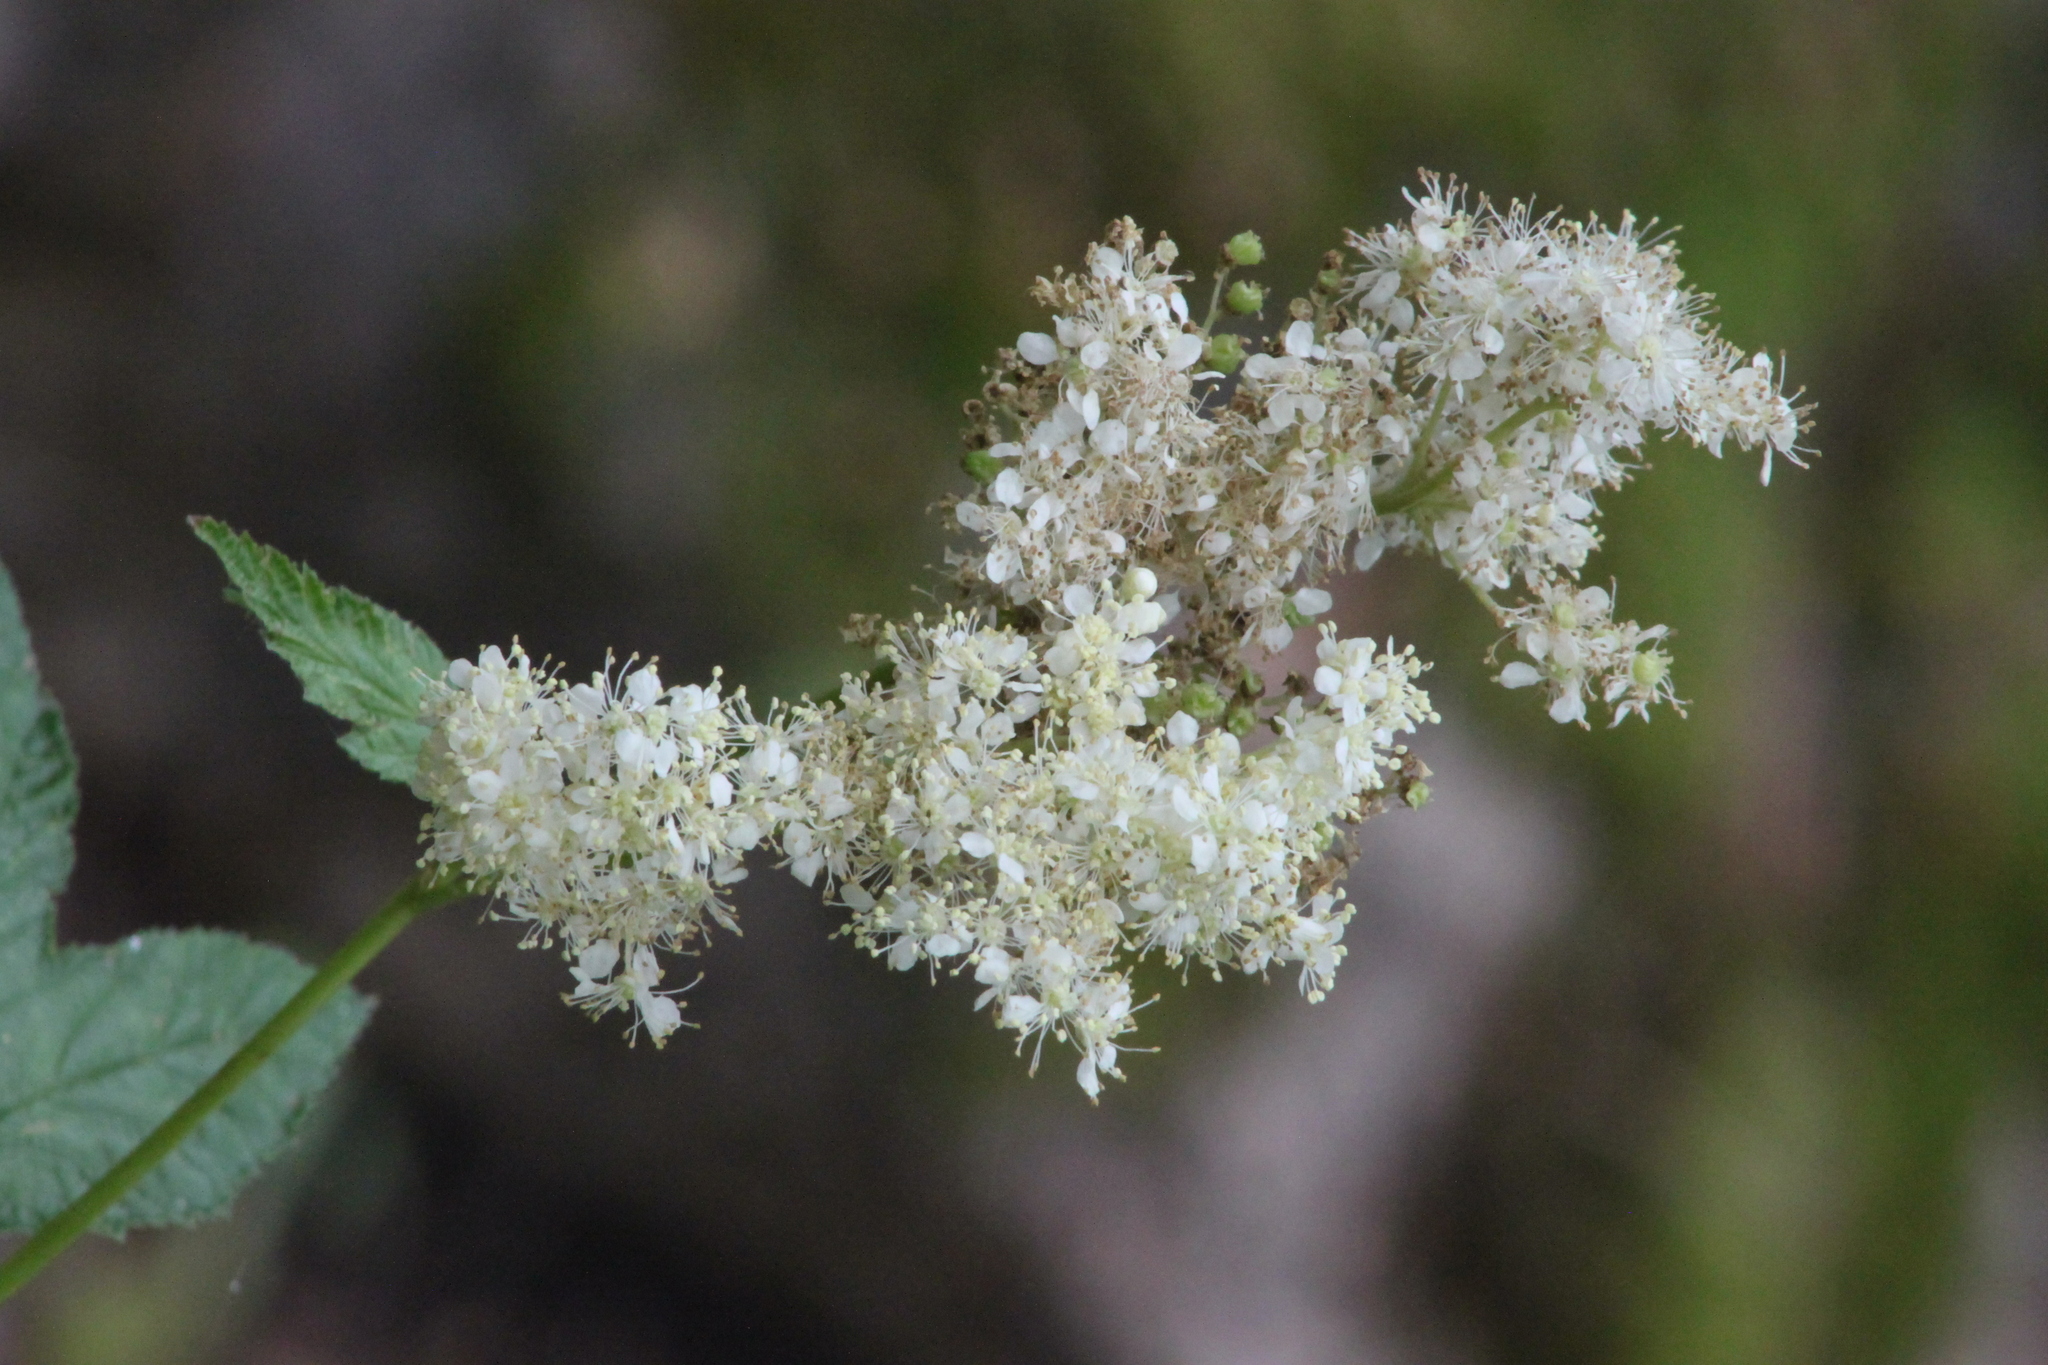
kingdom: Plantae
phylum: Tracheophyta
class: Magnoliopsida
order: Rosales
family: Rosaceae
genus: Filipendula
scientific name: Filipendula ulmaria
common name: Meadowsweet
